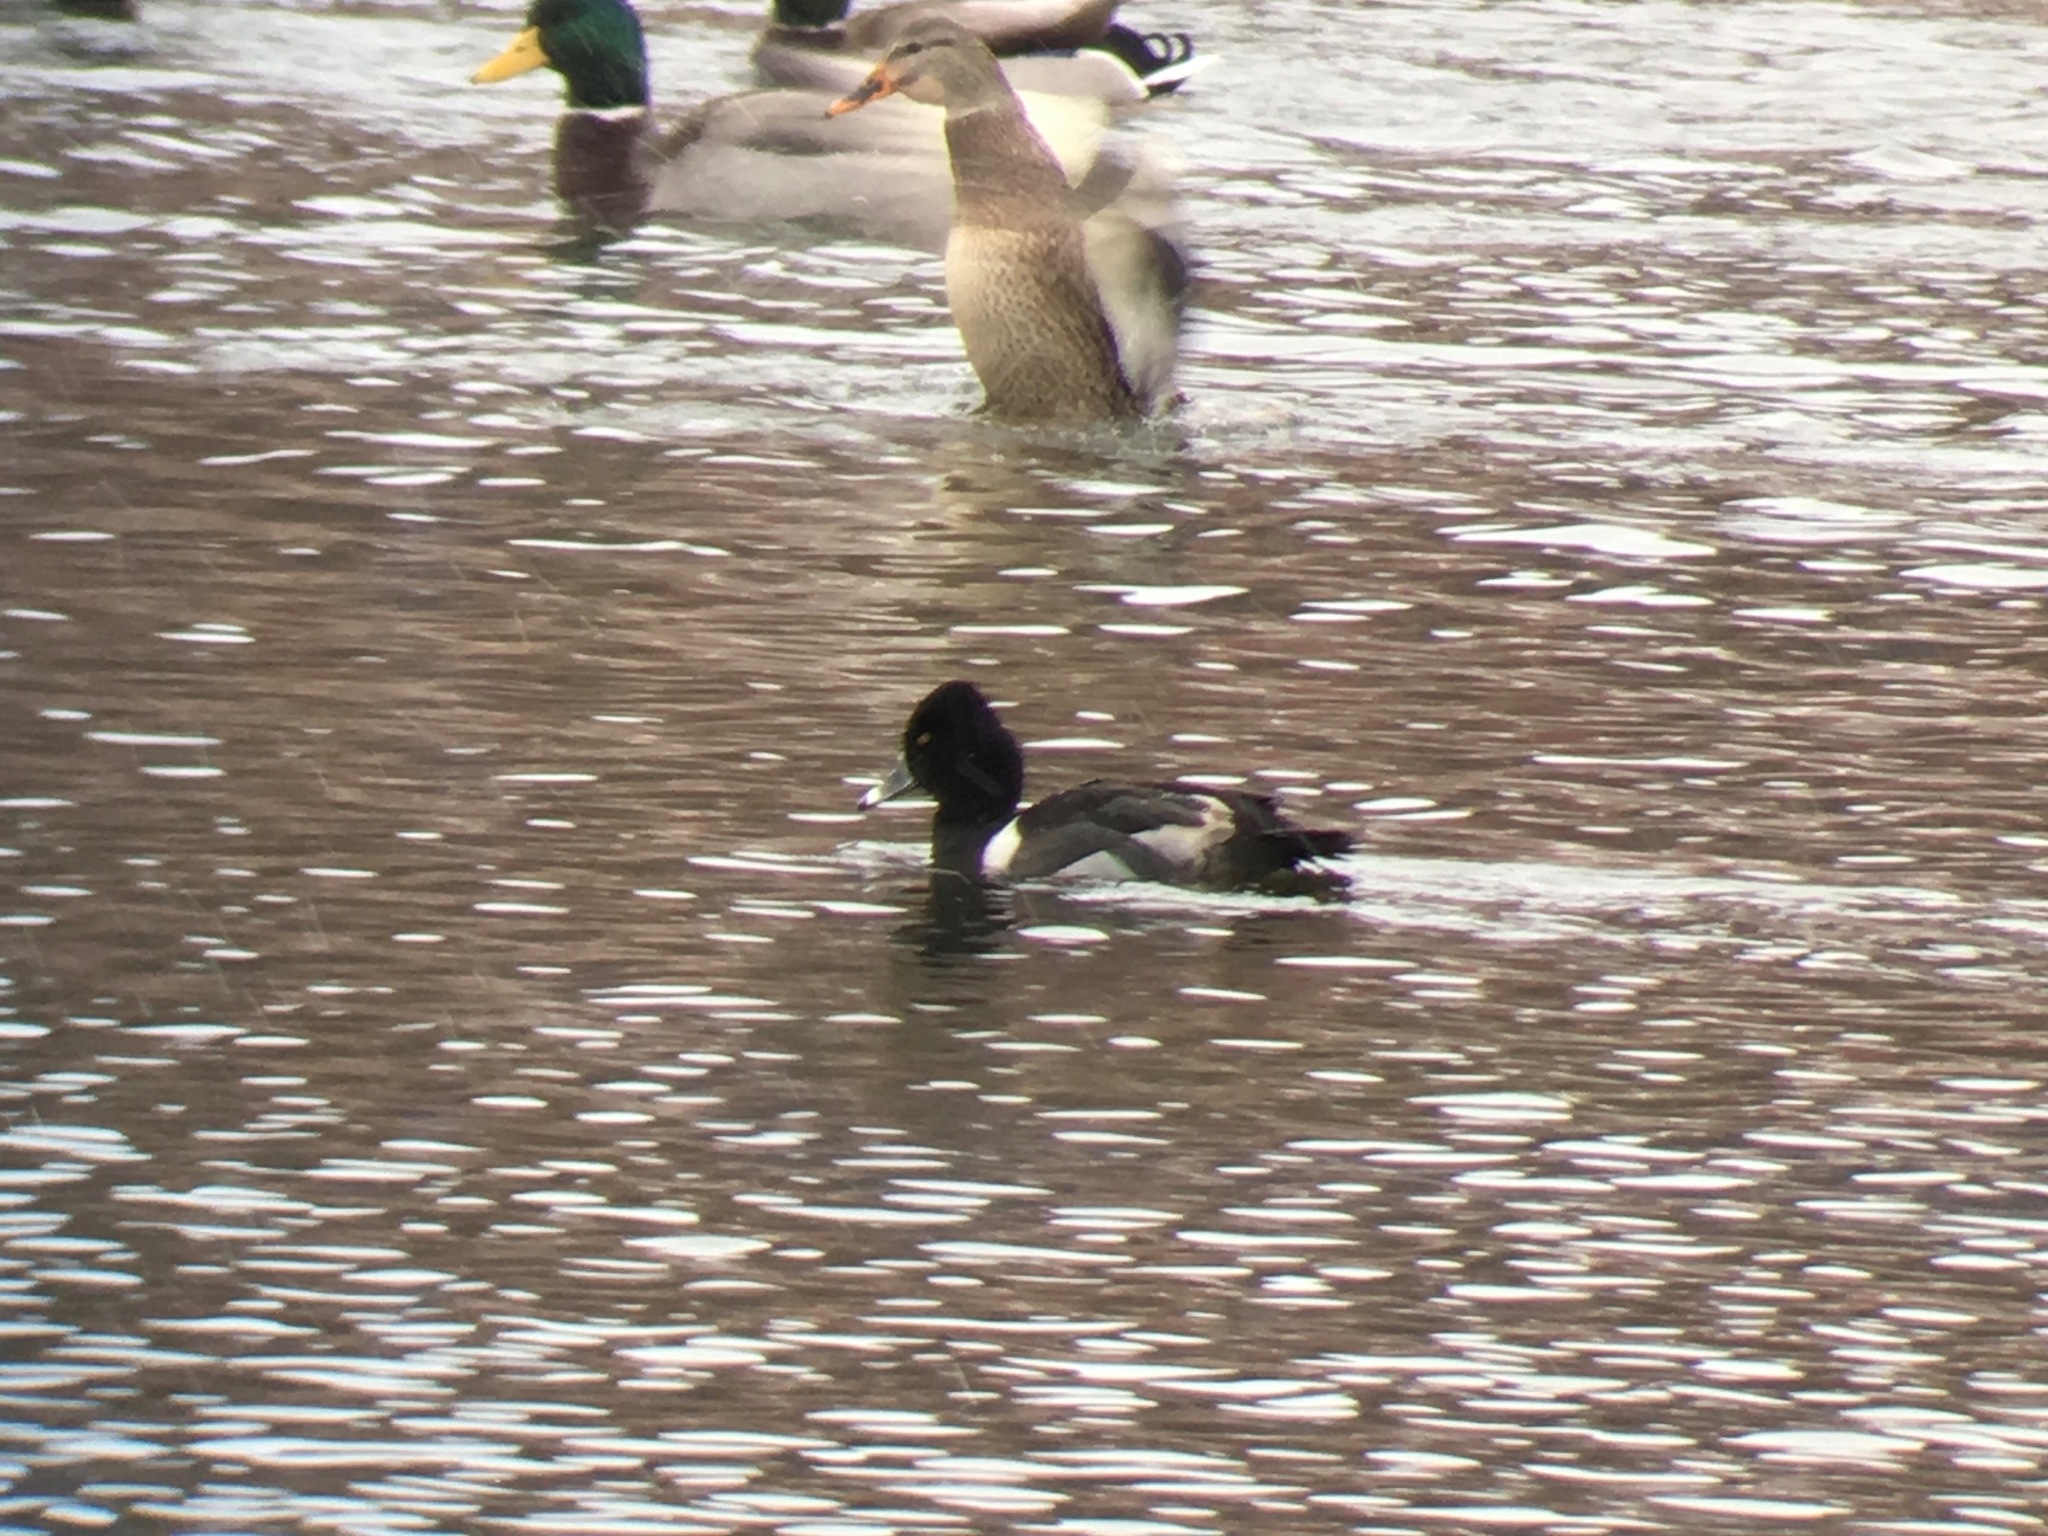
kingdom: Animalia
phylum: Chordata
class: Aves
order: Anseriformes
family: Anatidae
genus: Aythya
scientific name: Aythya collaris
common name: Ring-necked duck
